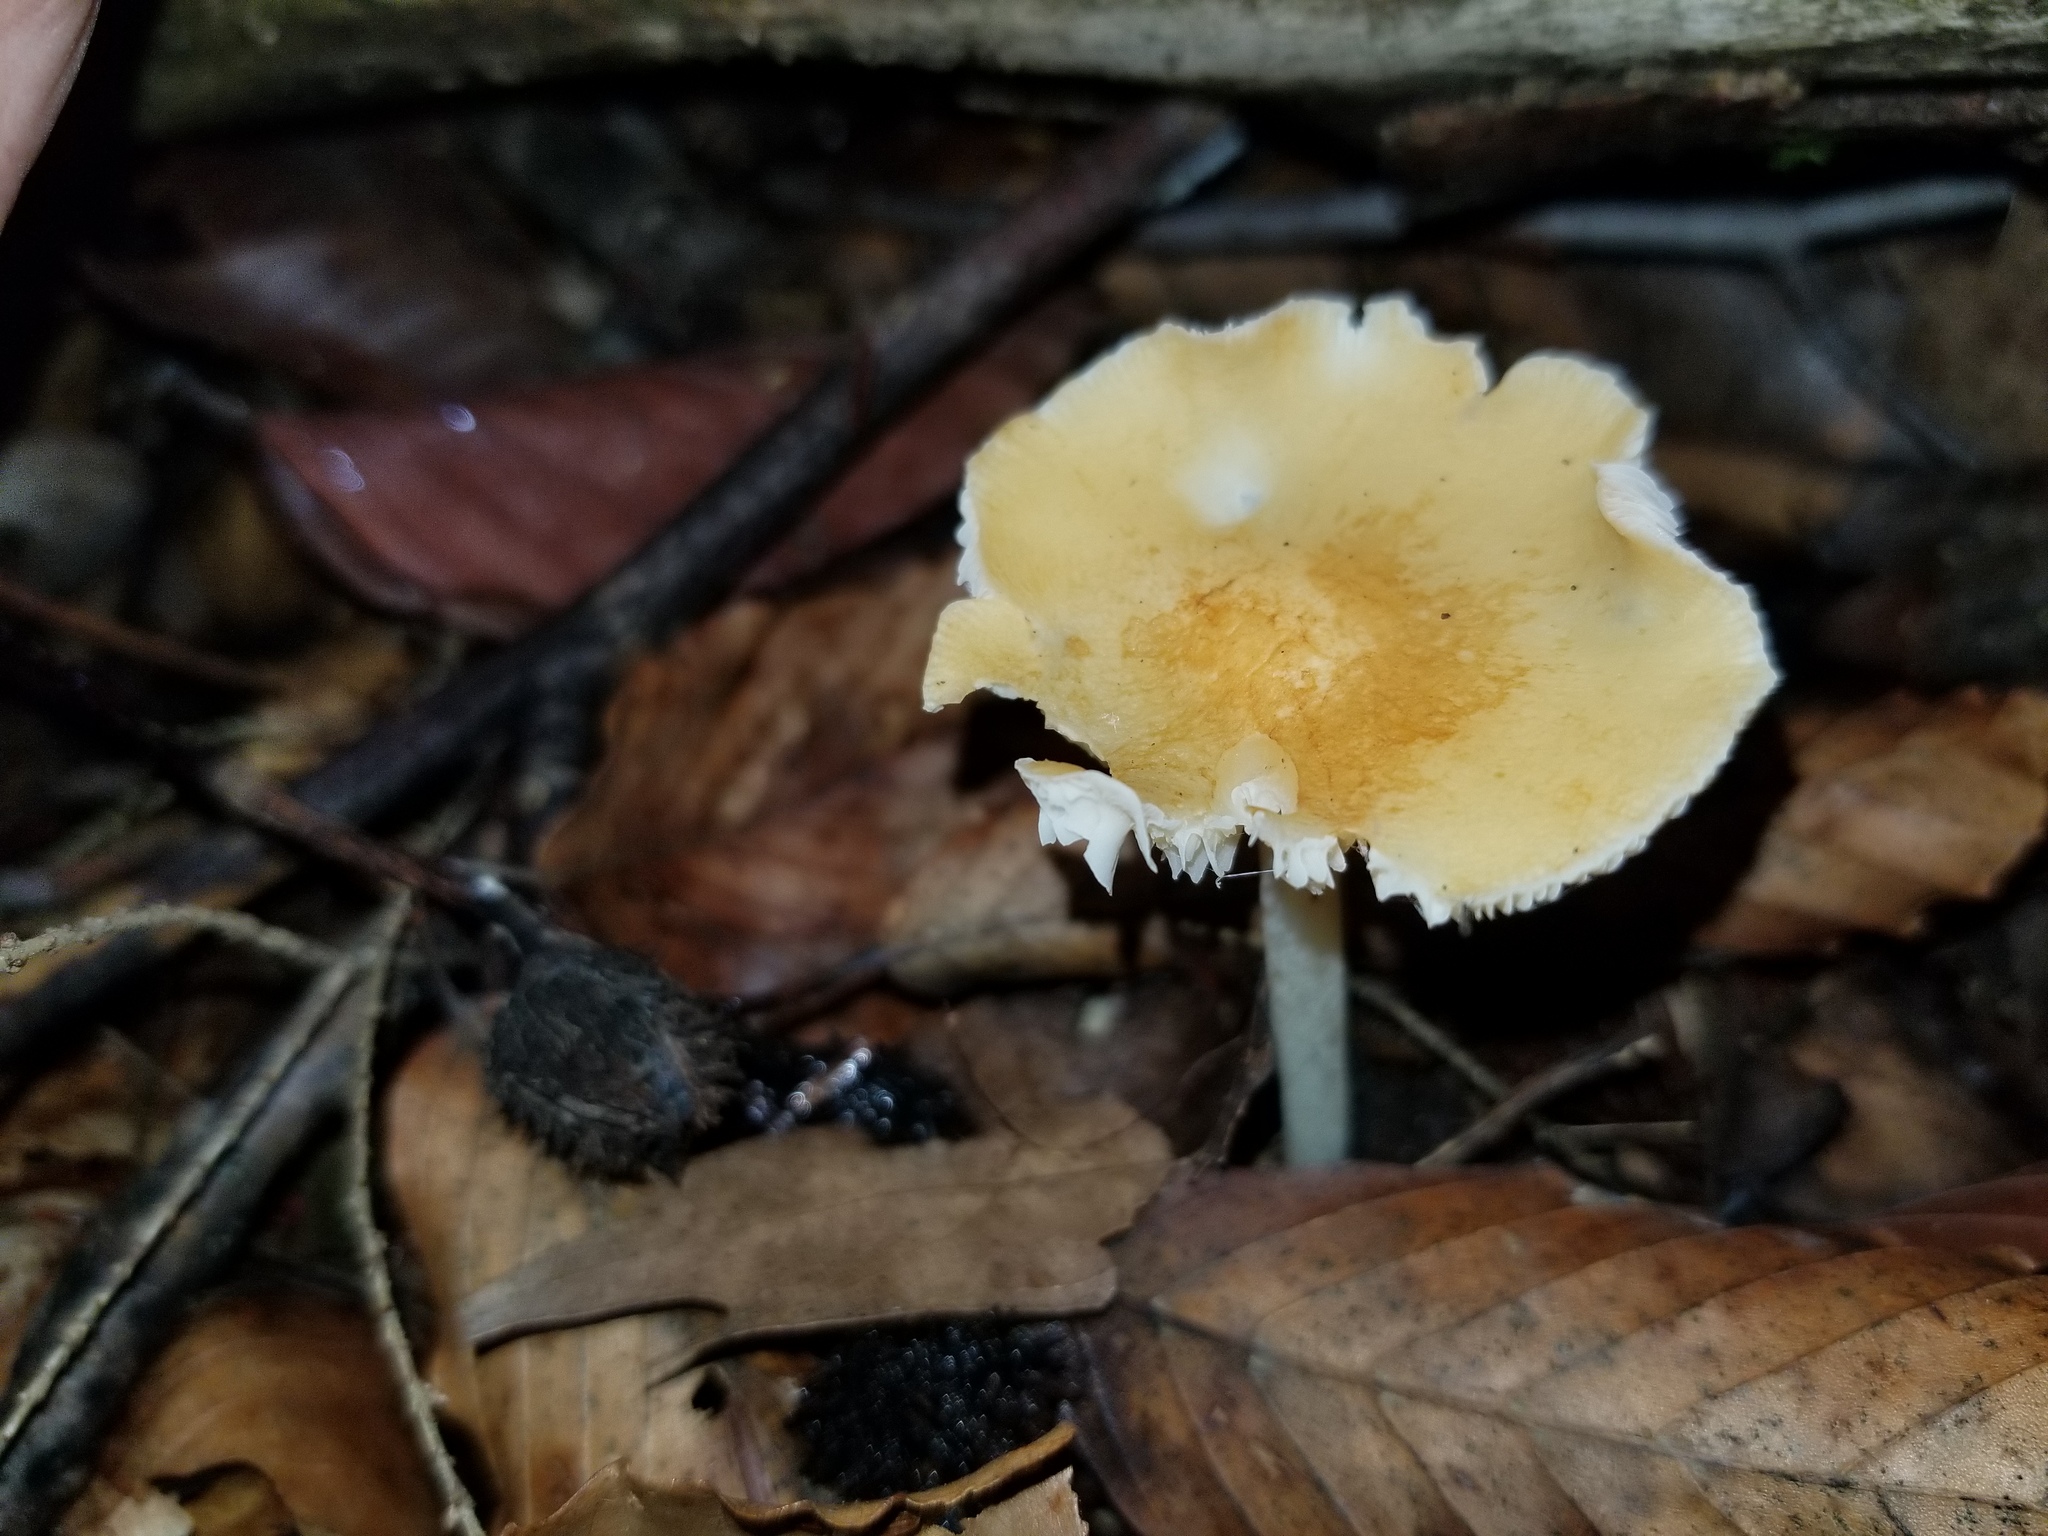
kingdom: Fungi
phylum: Basidiomycota
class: Agaricomycetes
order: Agaricales
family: Marasmiaceae
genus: Marasmius
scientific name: Marasmius strictipes
